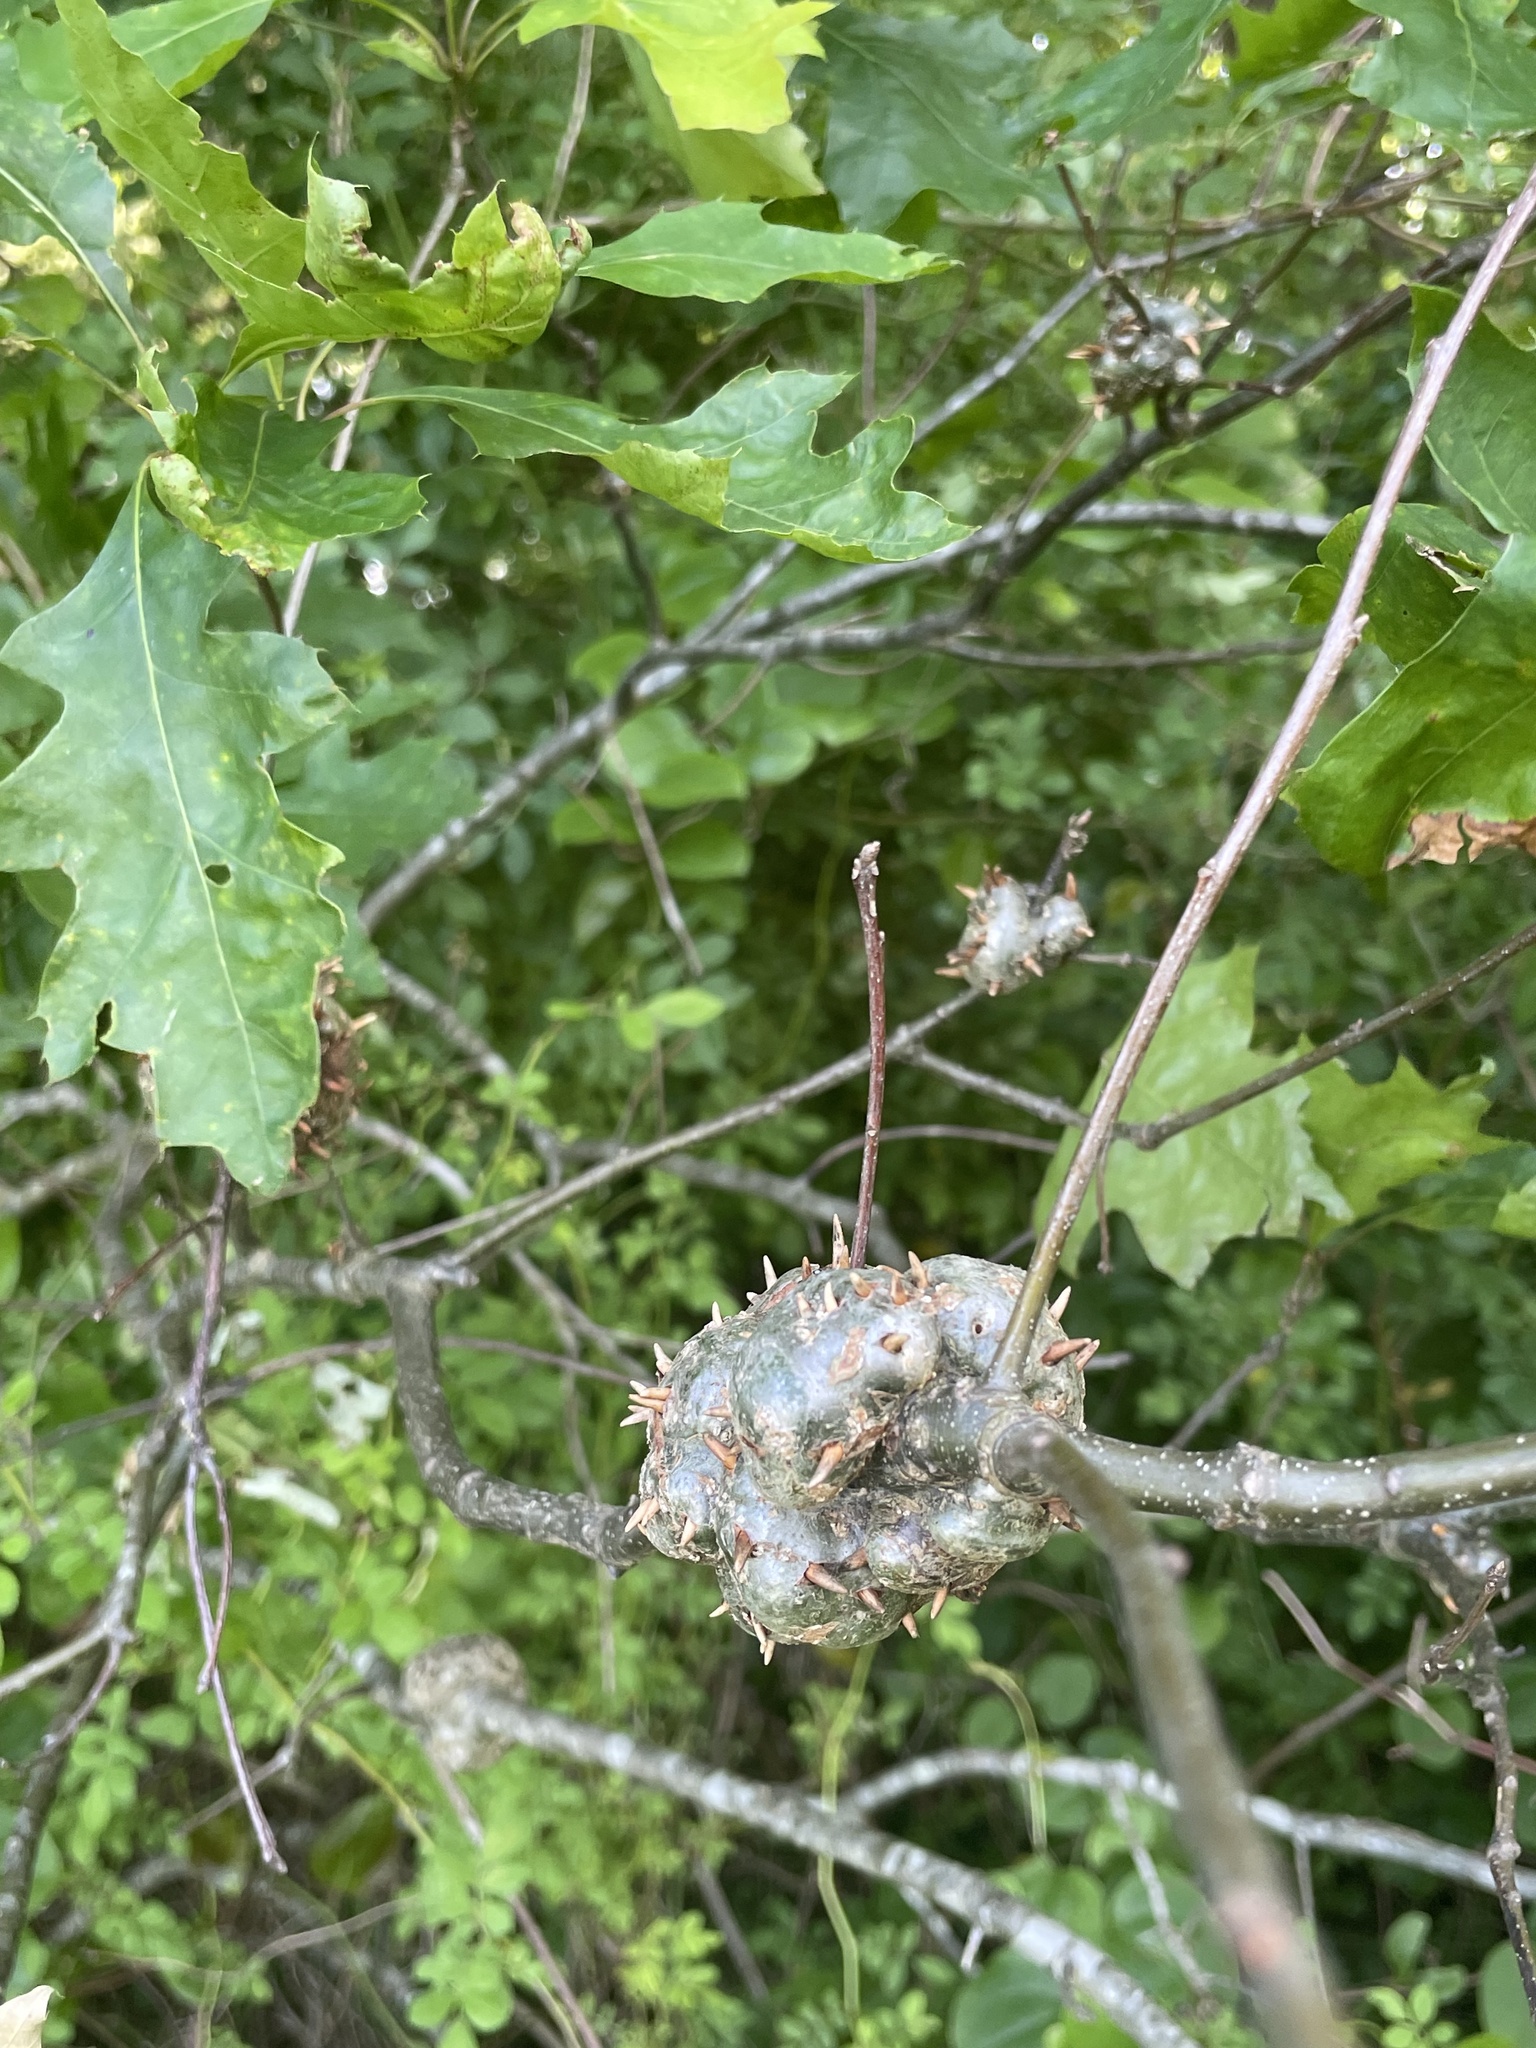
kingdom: Animalia
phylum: Arthropoda
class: Insecta
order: Hymenoptera
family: Cynipidae
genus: Callirhytis
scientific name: Callirhytis
